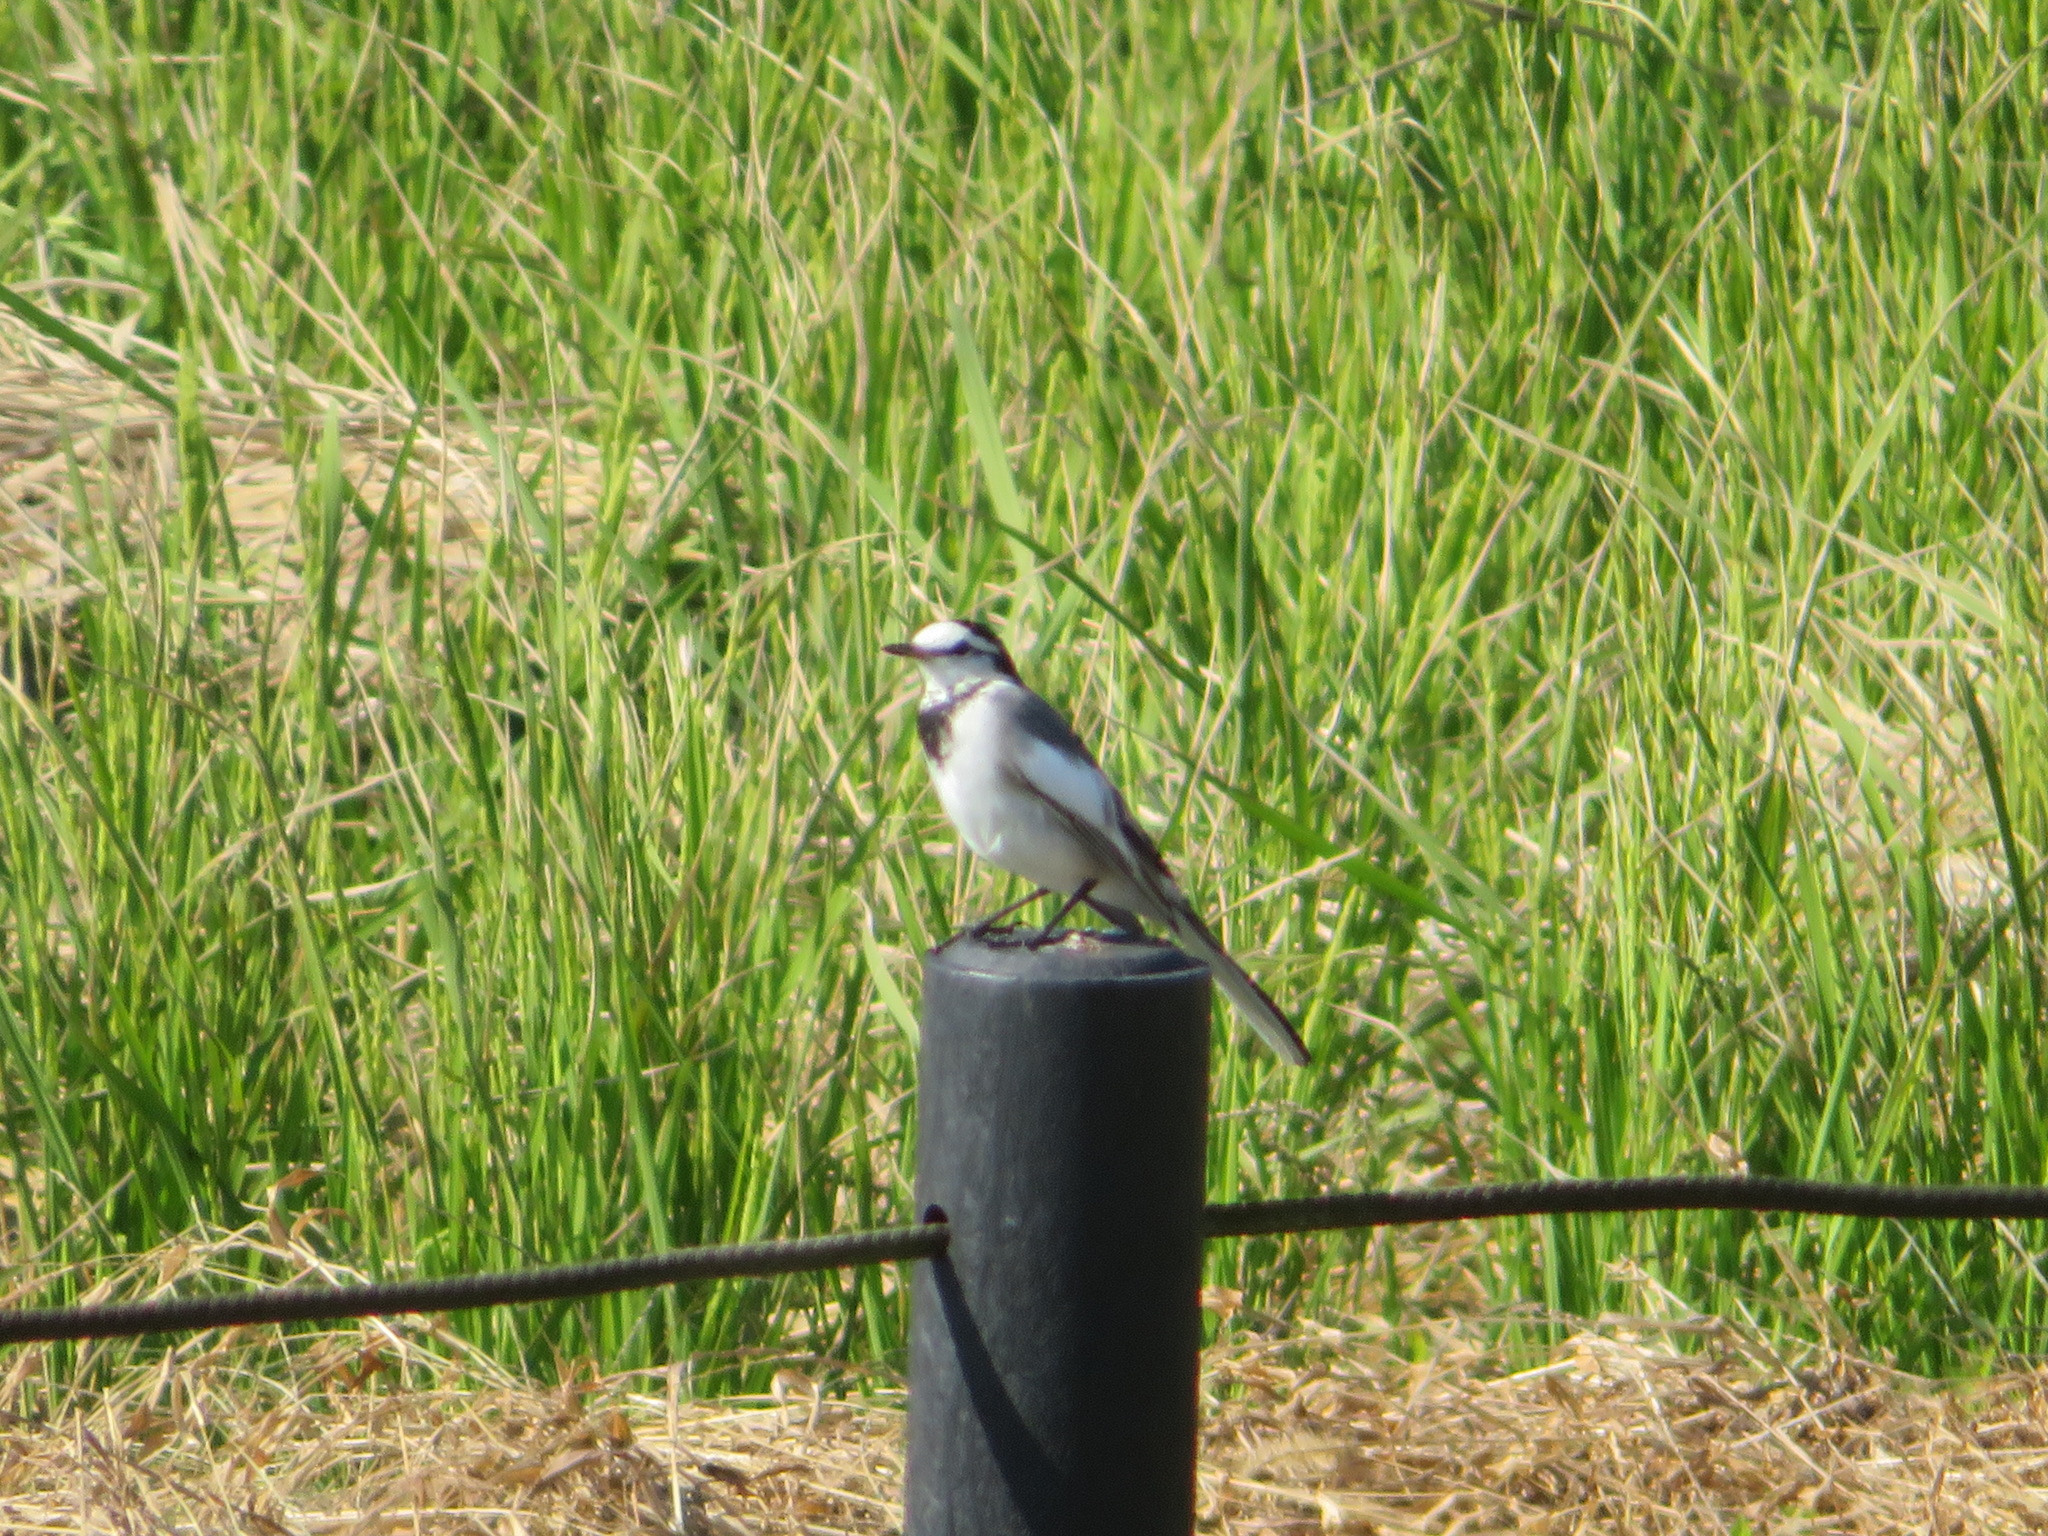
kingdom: Animalia
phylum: Chordata
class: Aves
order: Passeriformes
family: Motacillidae
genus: Motacilla
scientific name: Motacilla alba
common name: White wagtail
